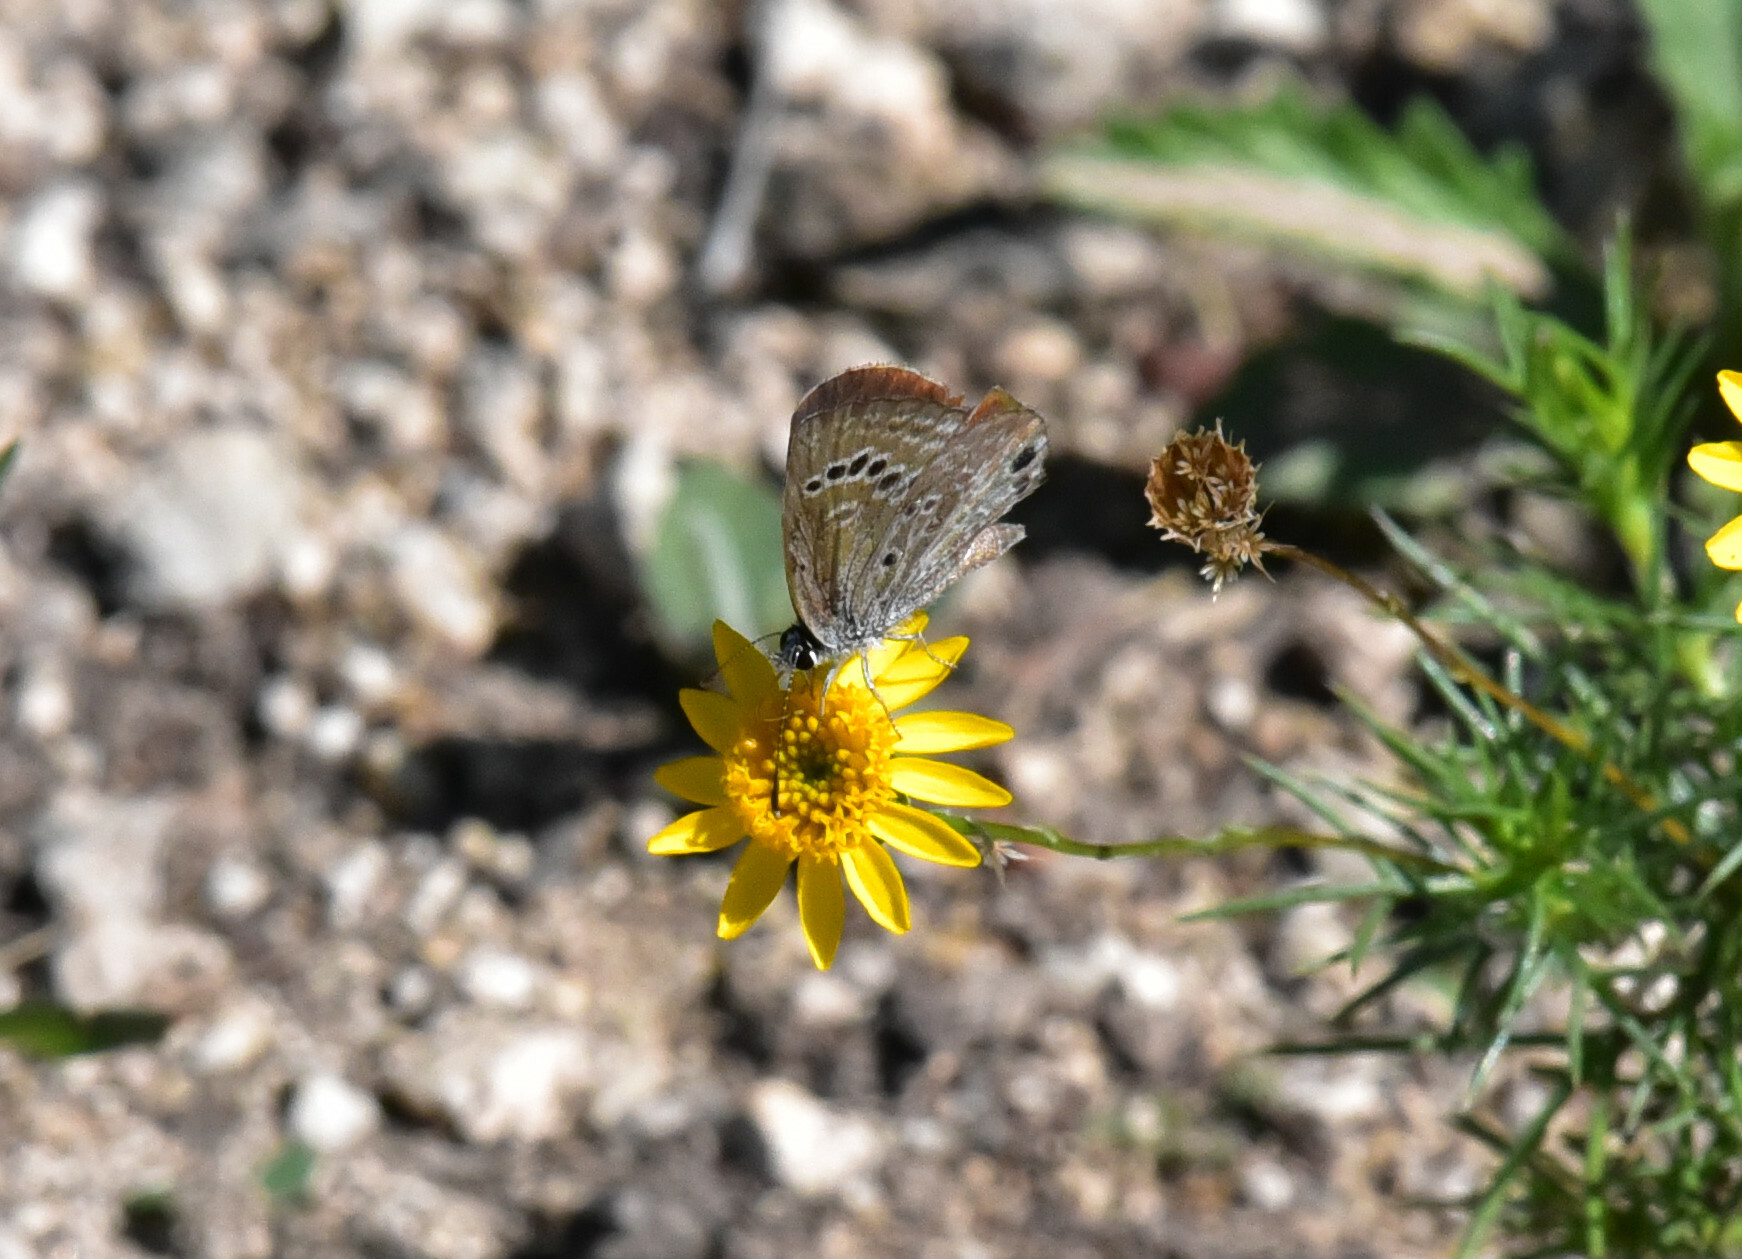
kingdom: Animalia
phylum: Arthropoda
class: Insecta
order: Lepidoptera
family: Lycaenidae
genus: Echinargus
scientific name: Echinargus isola
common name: Reakirt's blue
